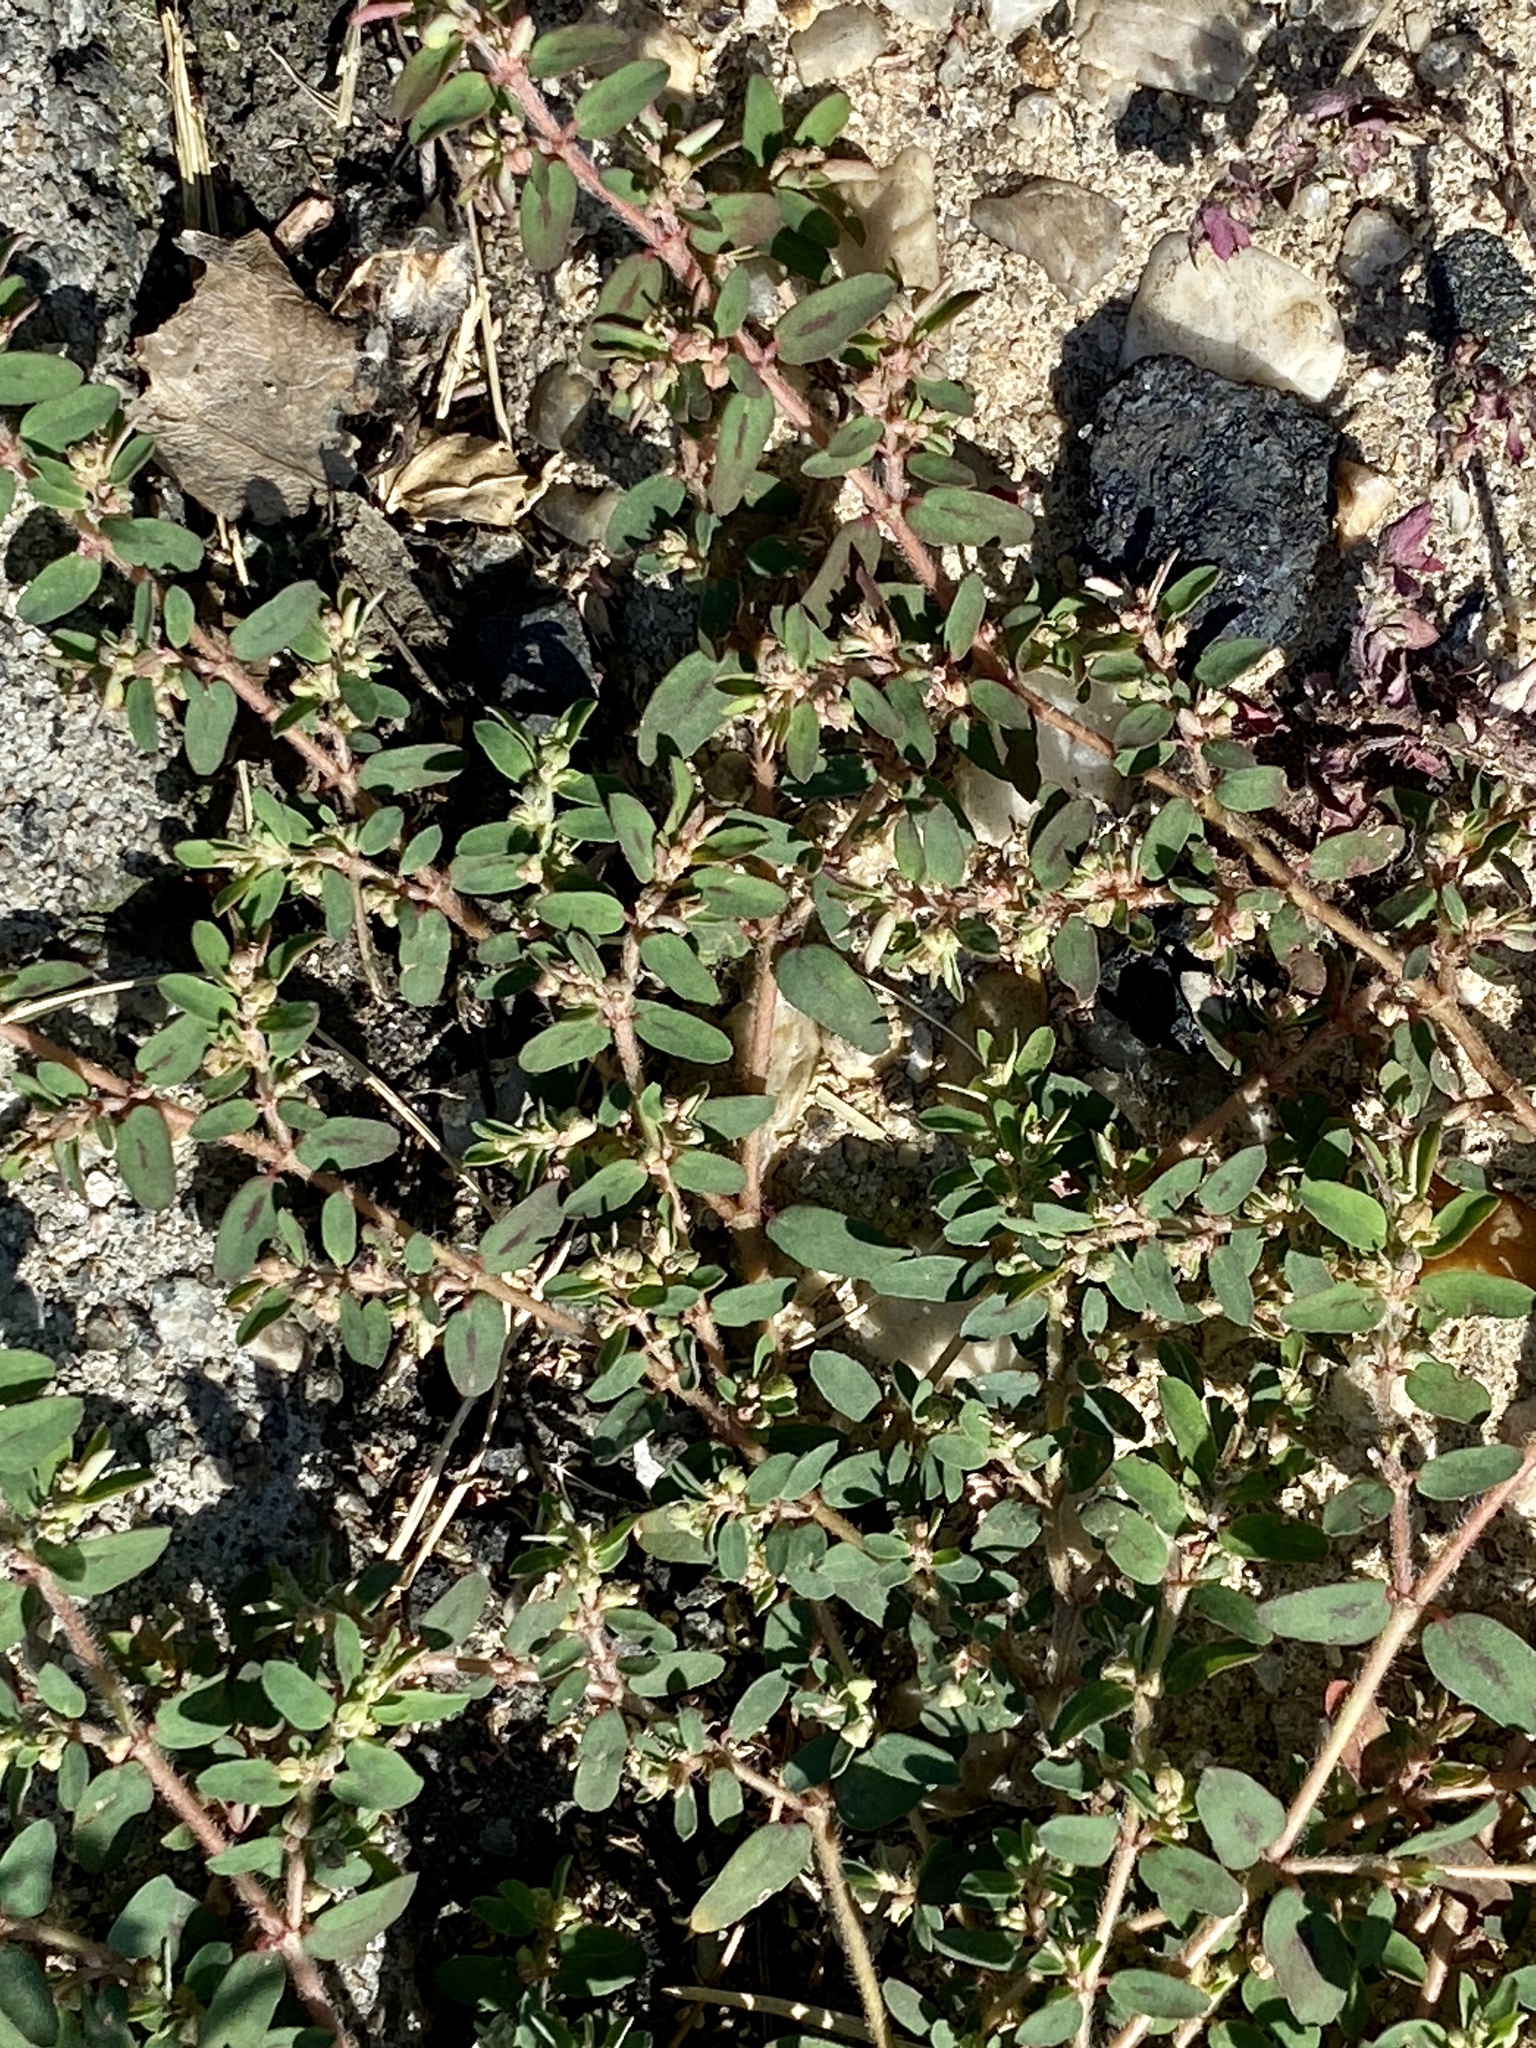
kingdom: Plantae
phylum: Tracheophyta
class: Magnoliopsida
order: Malpighiales
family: Euphorbiaceae
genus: Euphorbia
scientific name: Euphorbia maculata
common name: Spotted spurge
